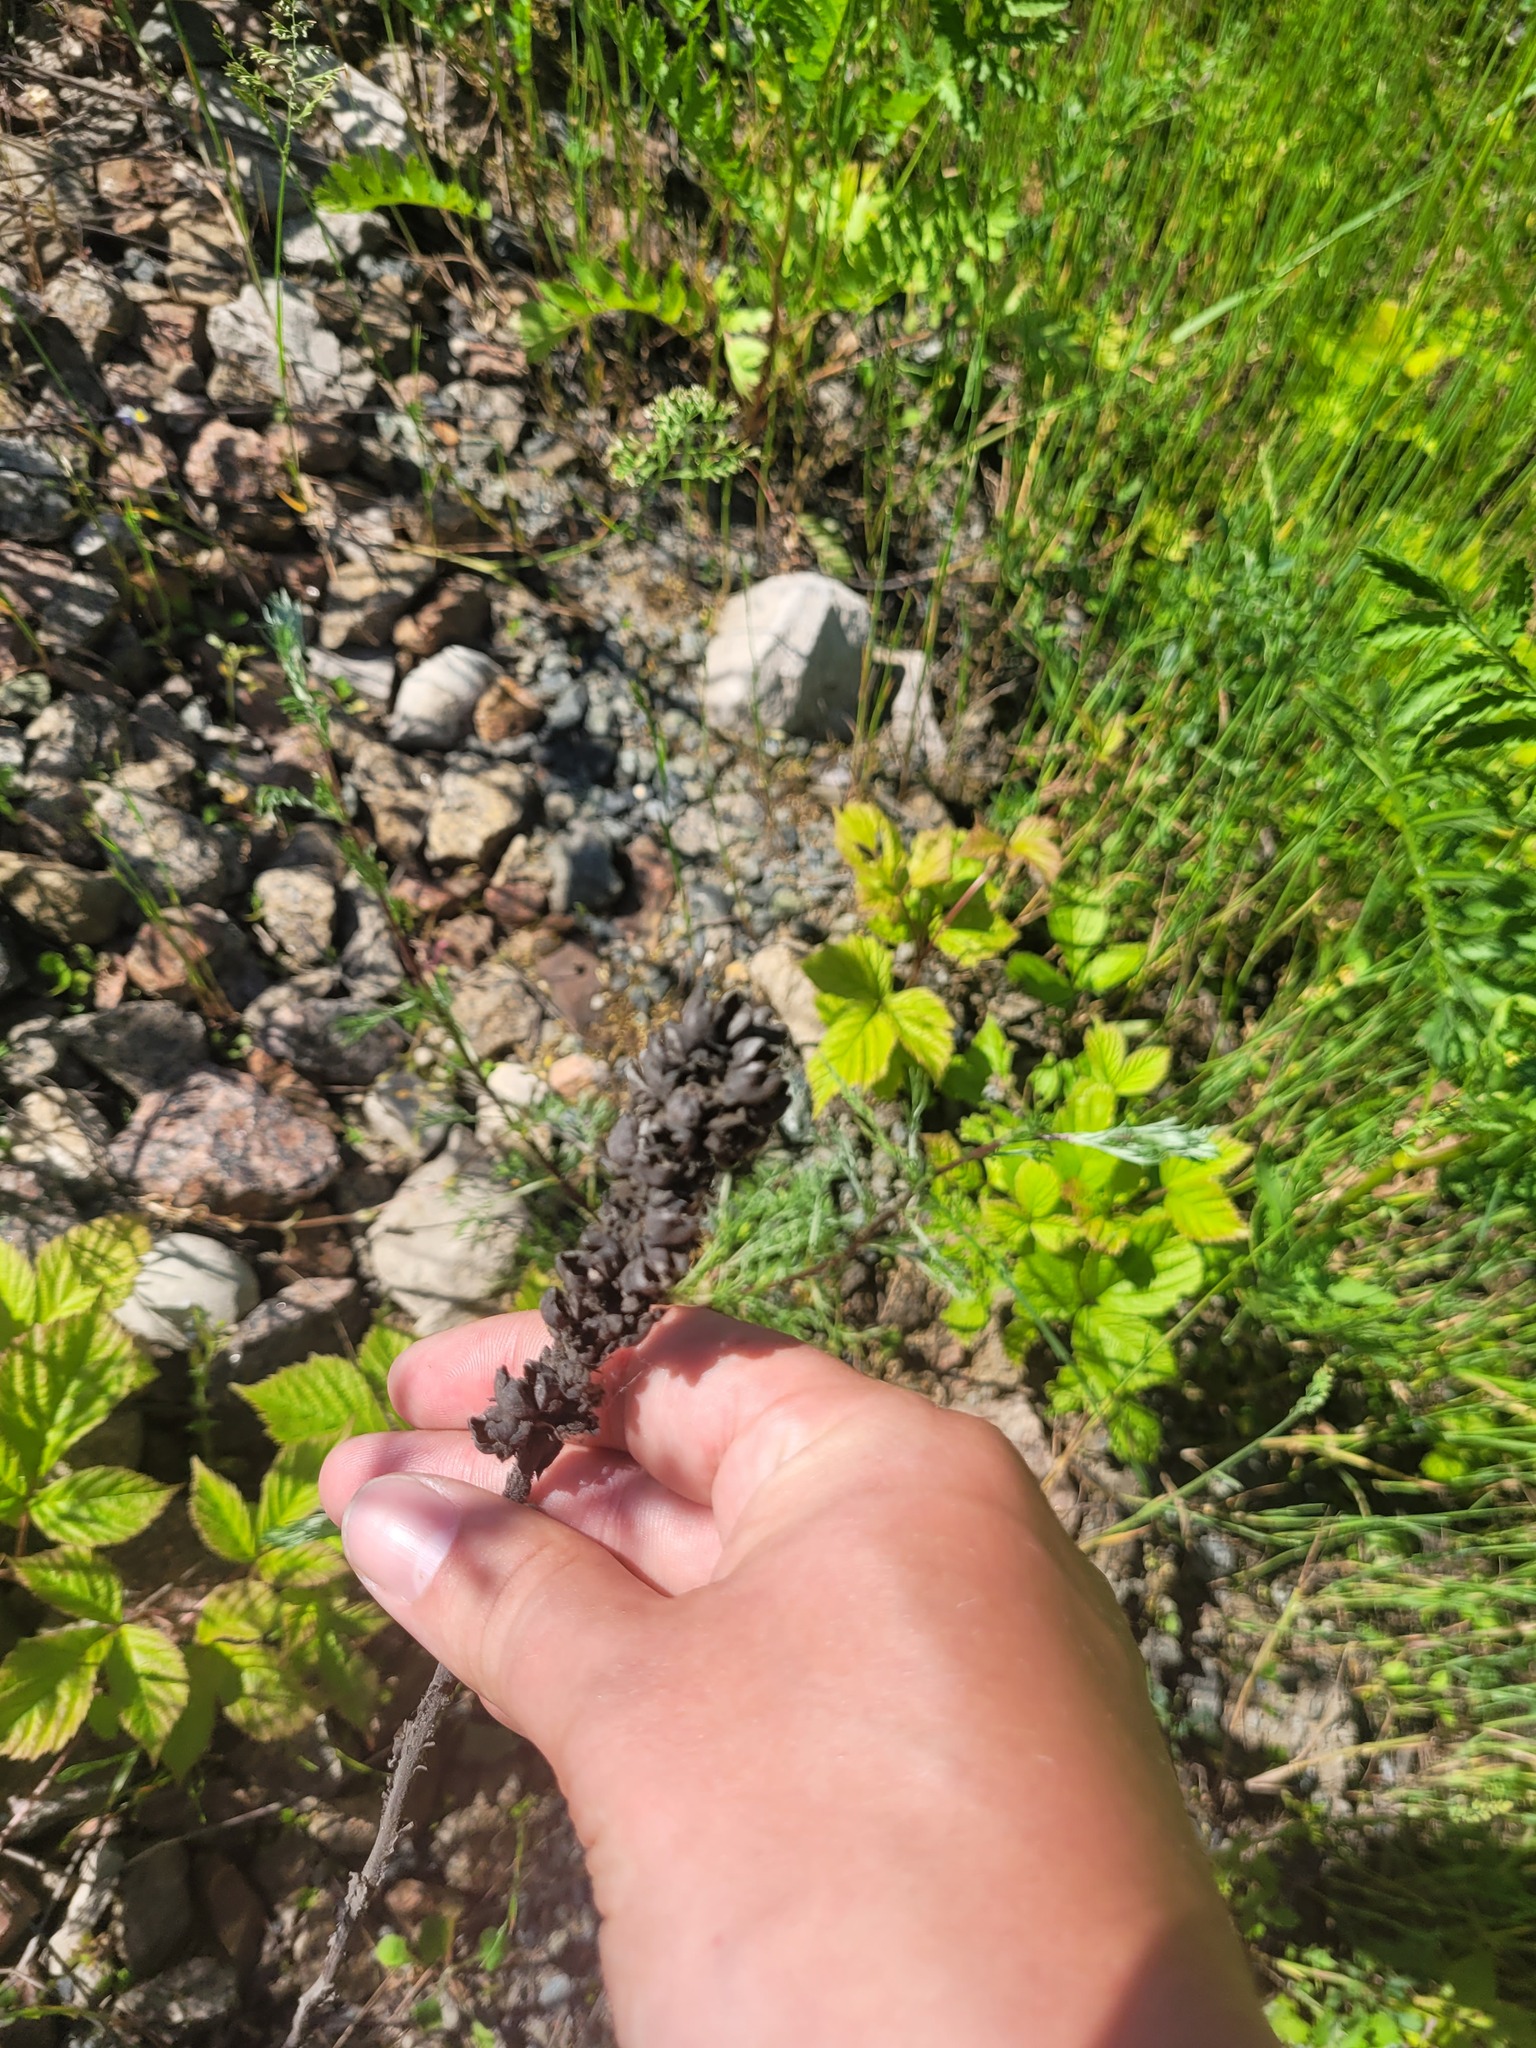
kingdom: Plantae
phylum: Tracheophyta
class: Magnoliopsida
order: Lamiales
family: Scrophulariaceae
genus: Verbascum
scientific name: Verbascum thapsus
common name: Common mullein
